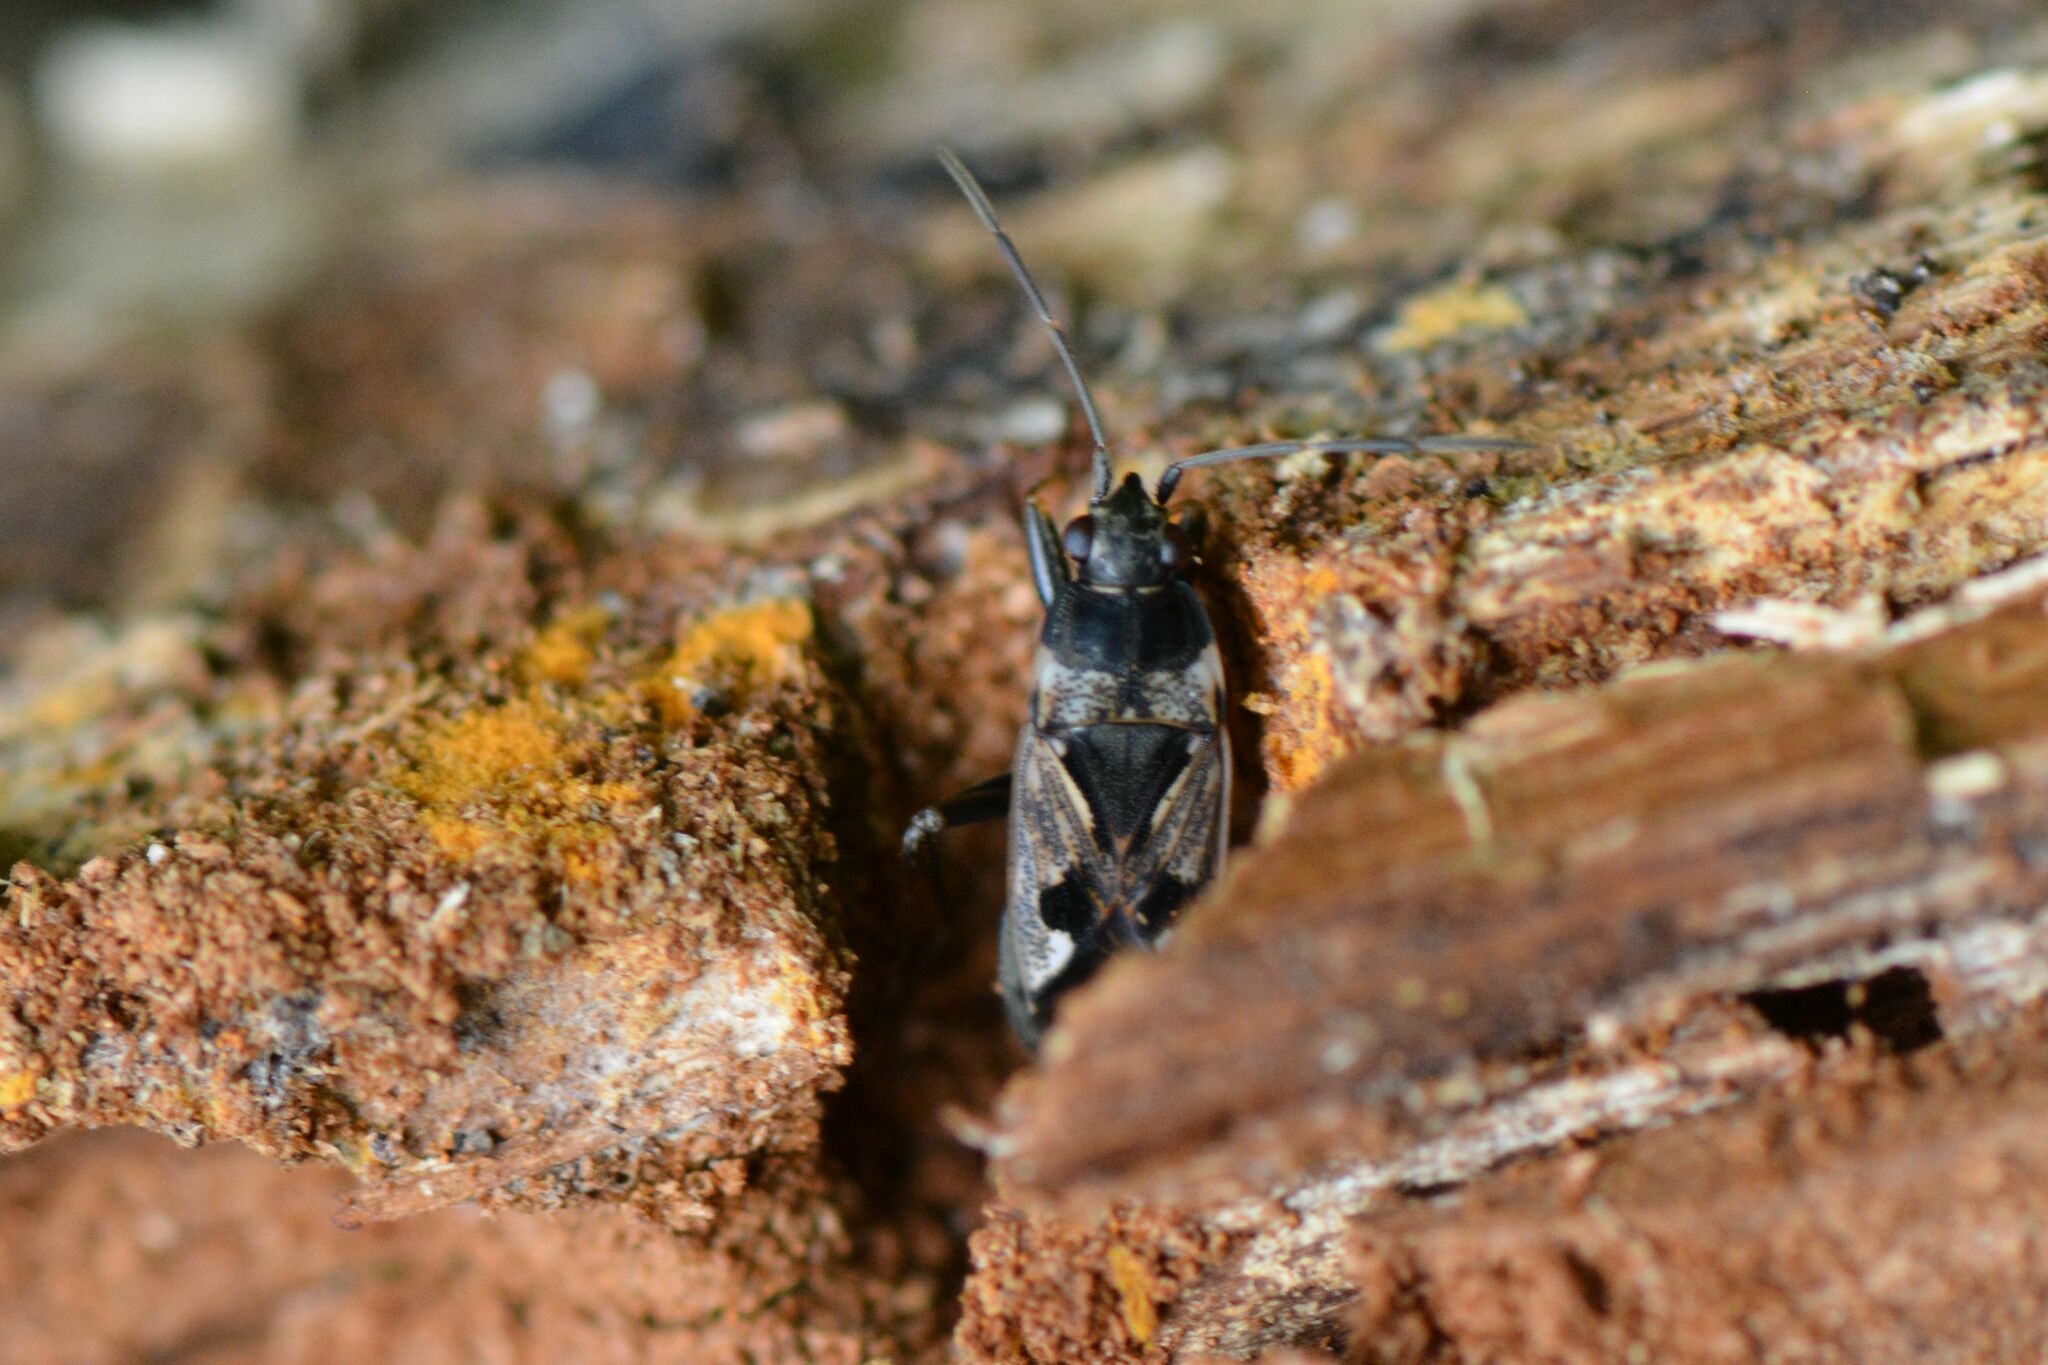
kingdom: Animalia
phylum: Arthropoda
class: Insecta
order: Hemiptera
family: Rhyparochromidae
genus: Rhyparochromus
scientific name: Rhyparochromus vulgaris
